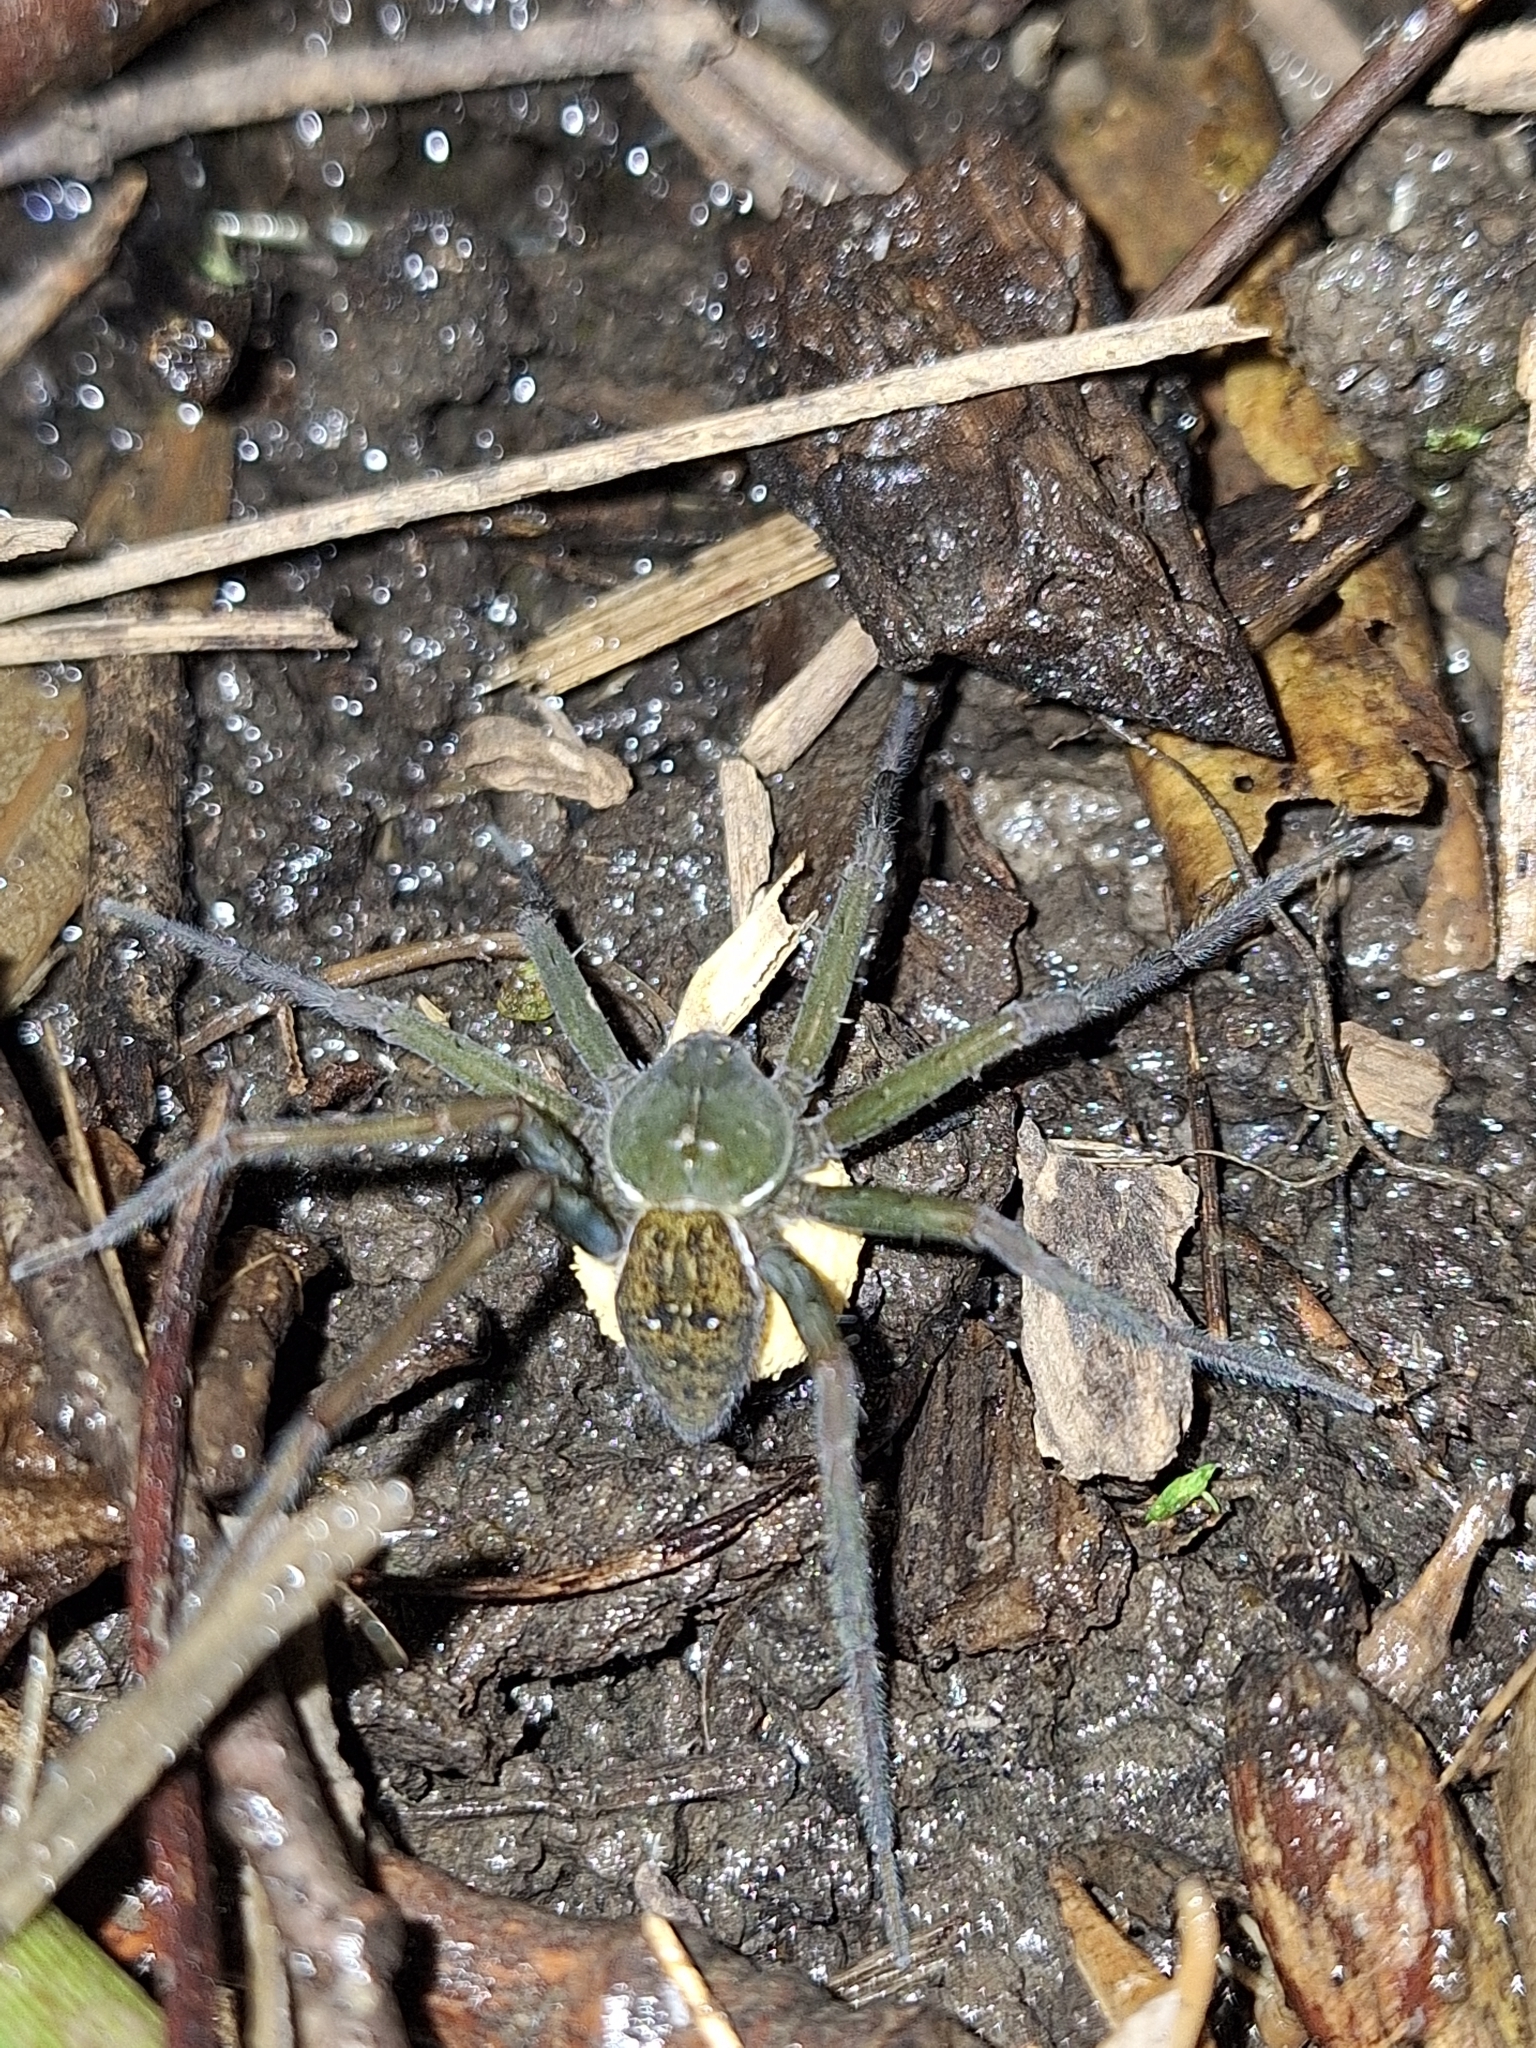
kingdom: Animalia
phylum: Arthropoda
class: Arachnida
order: Araneae
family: Pisauridae
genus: Thaumasia
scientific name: Thaumasia velox
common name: Nursery web spiders
